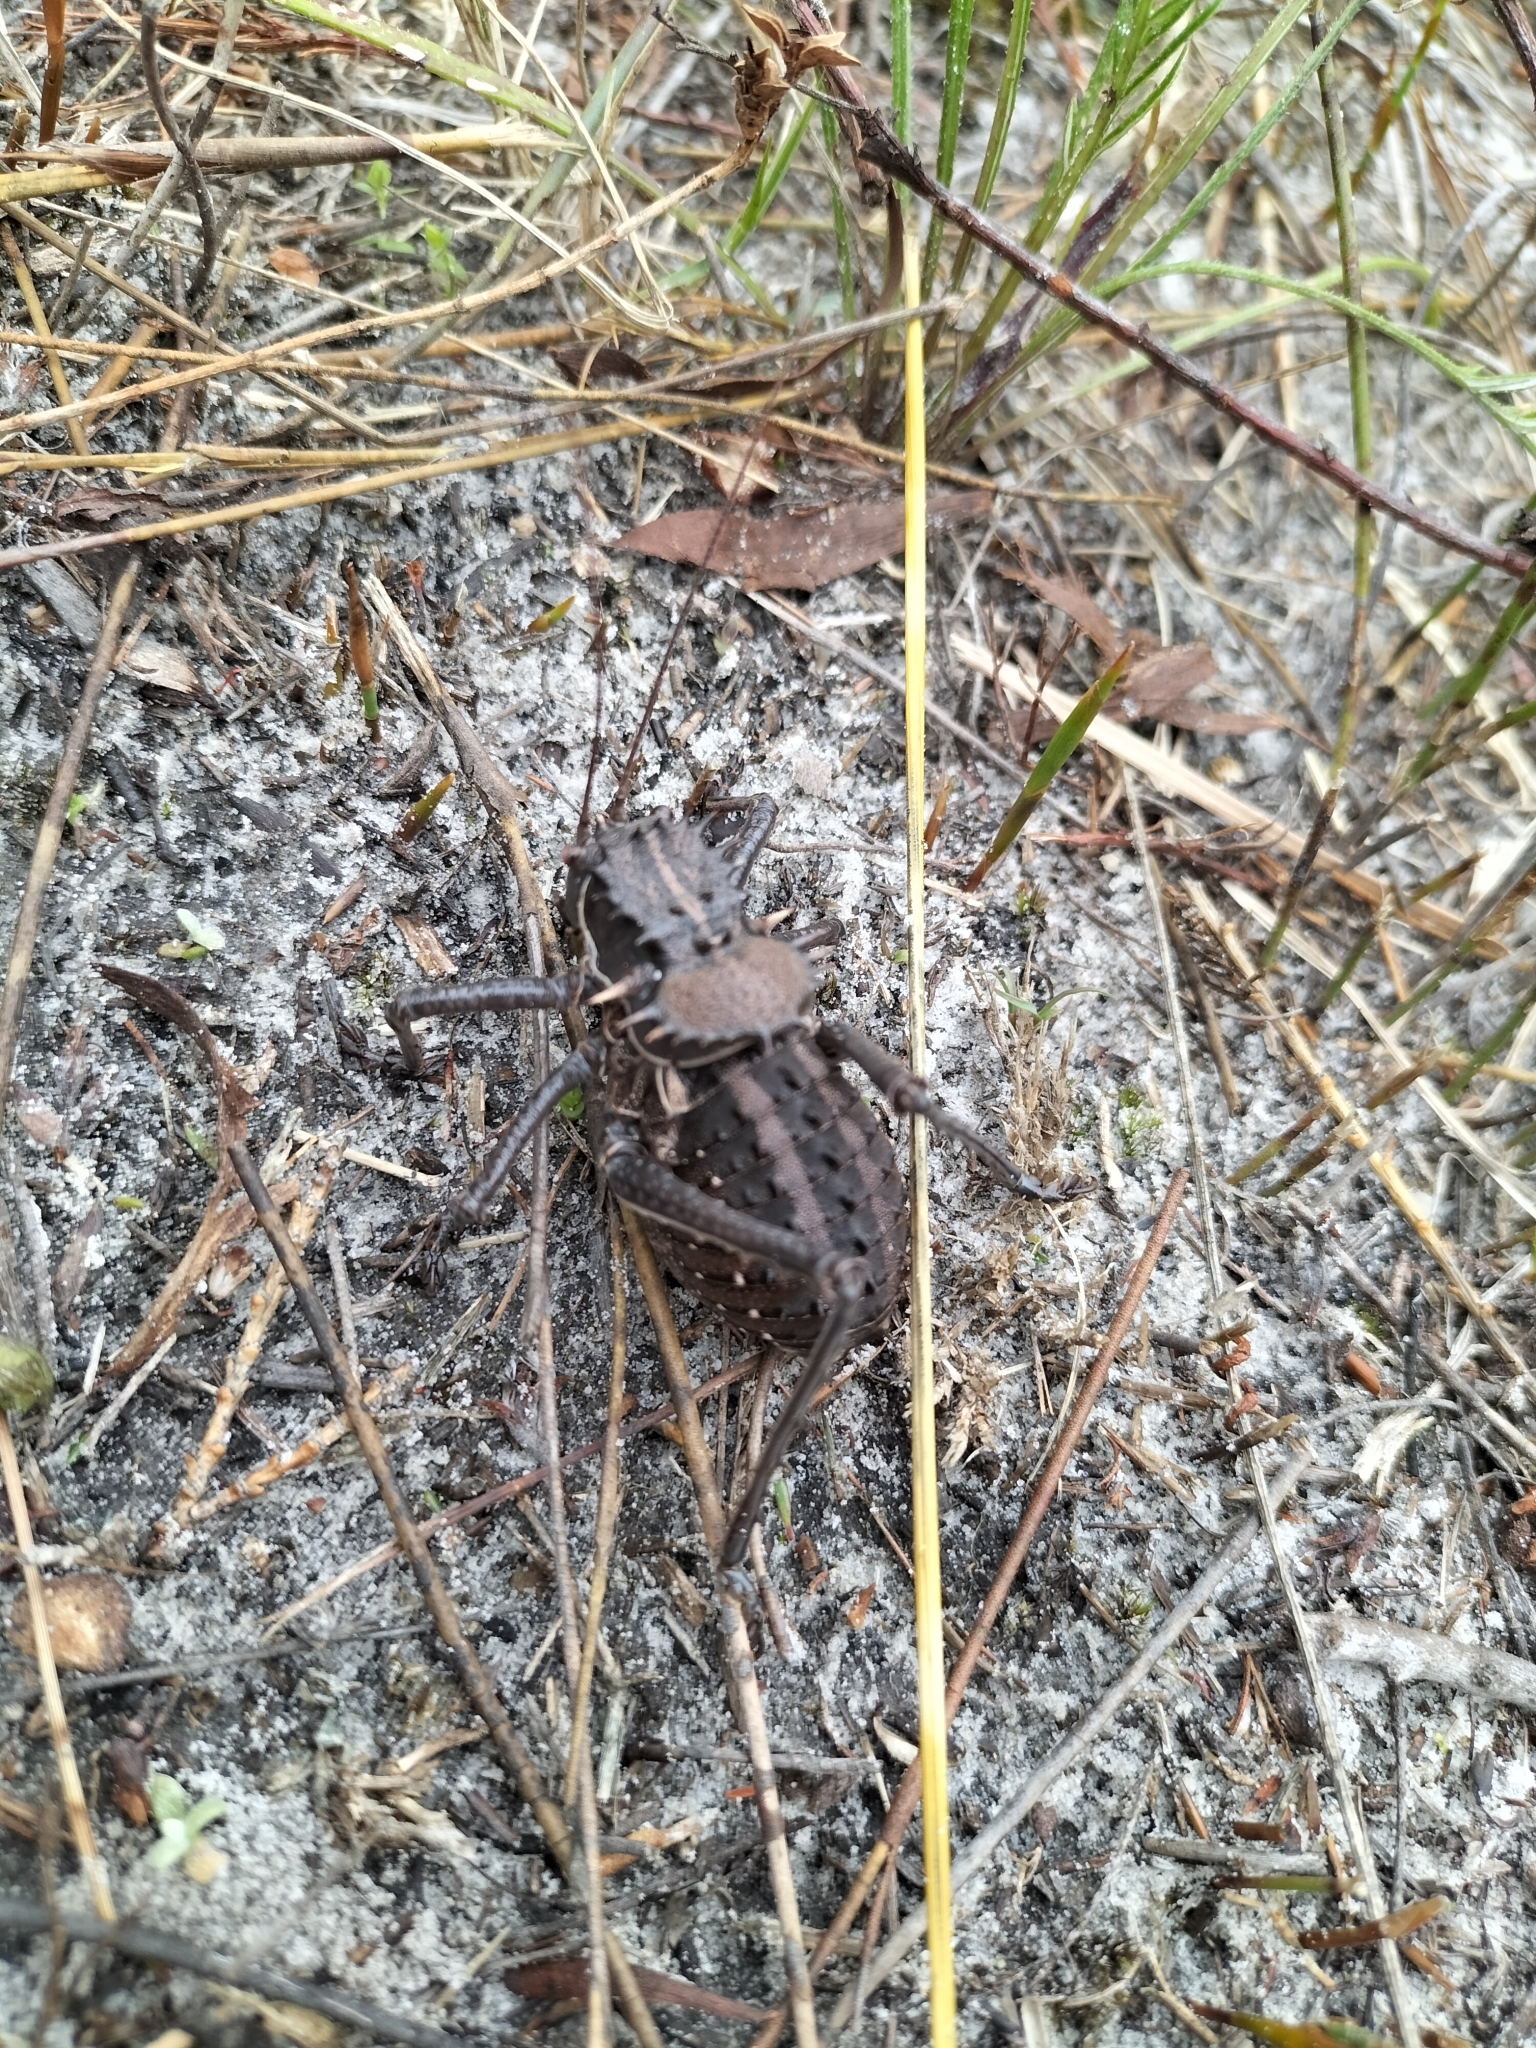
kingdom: Animalia
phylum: Arthropoda
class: Insecta
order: Orthoptera
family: Tettigoniidae
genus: Hetrodes
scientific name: Hetrodes pupus
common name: Koringkriek
